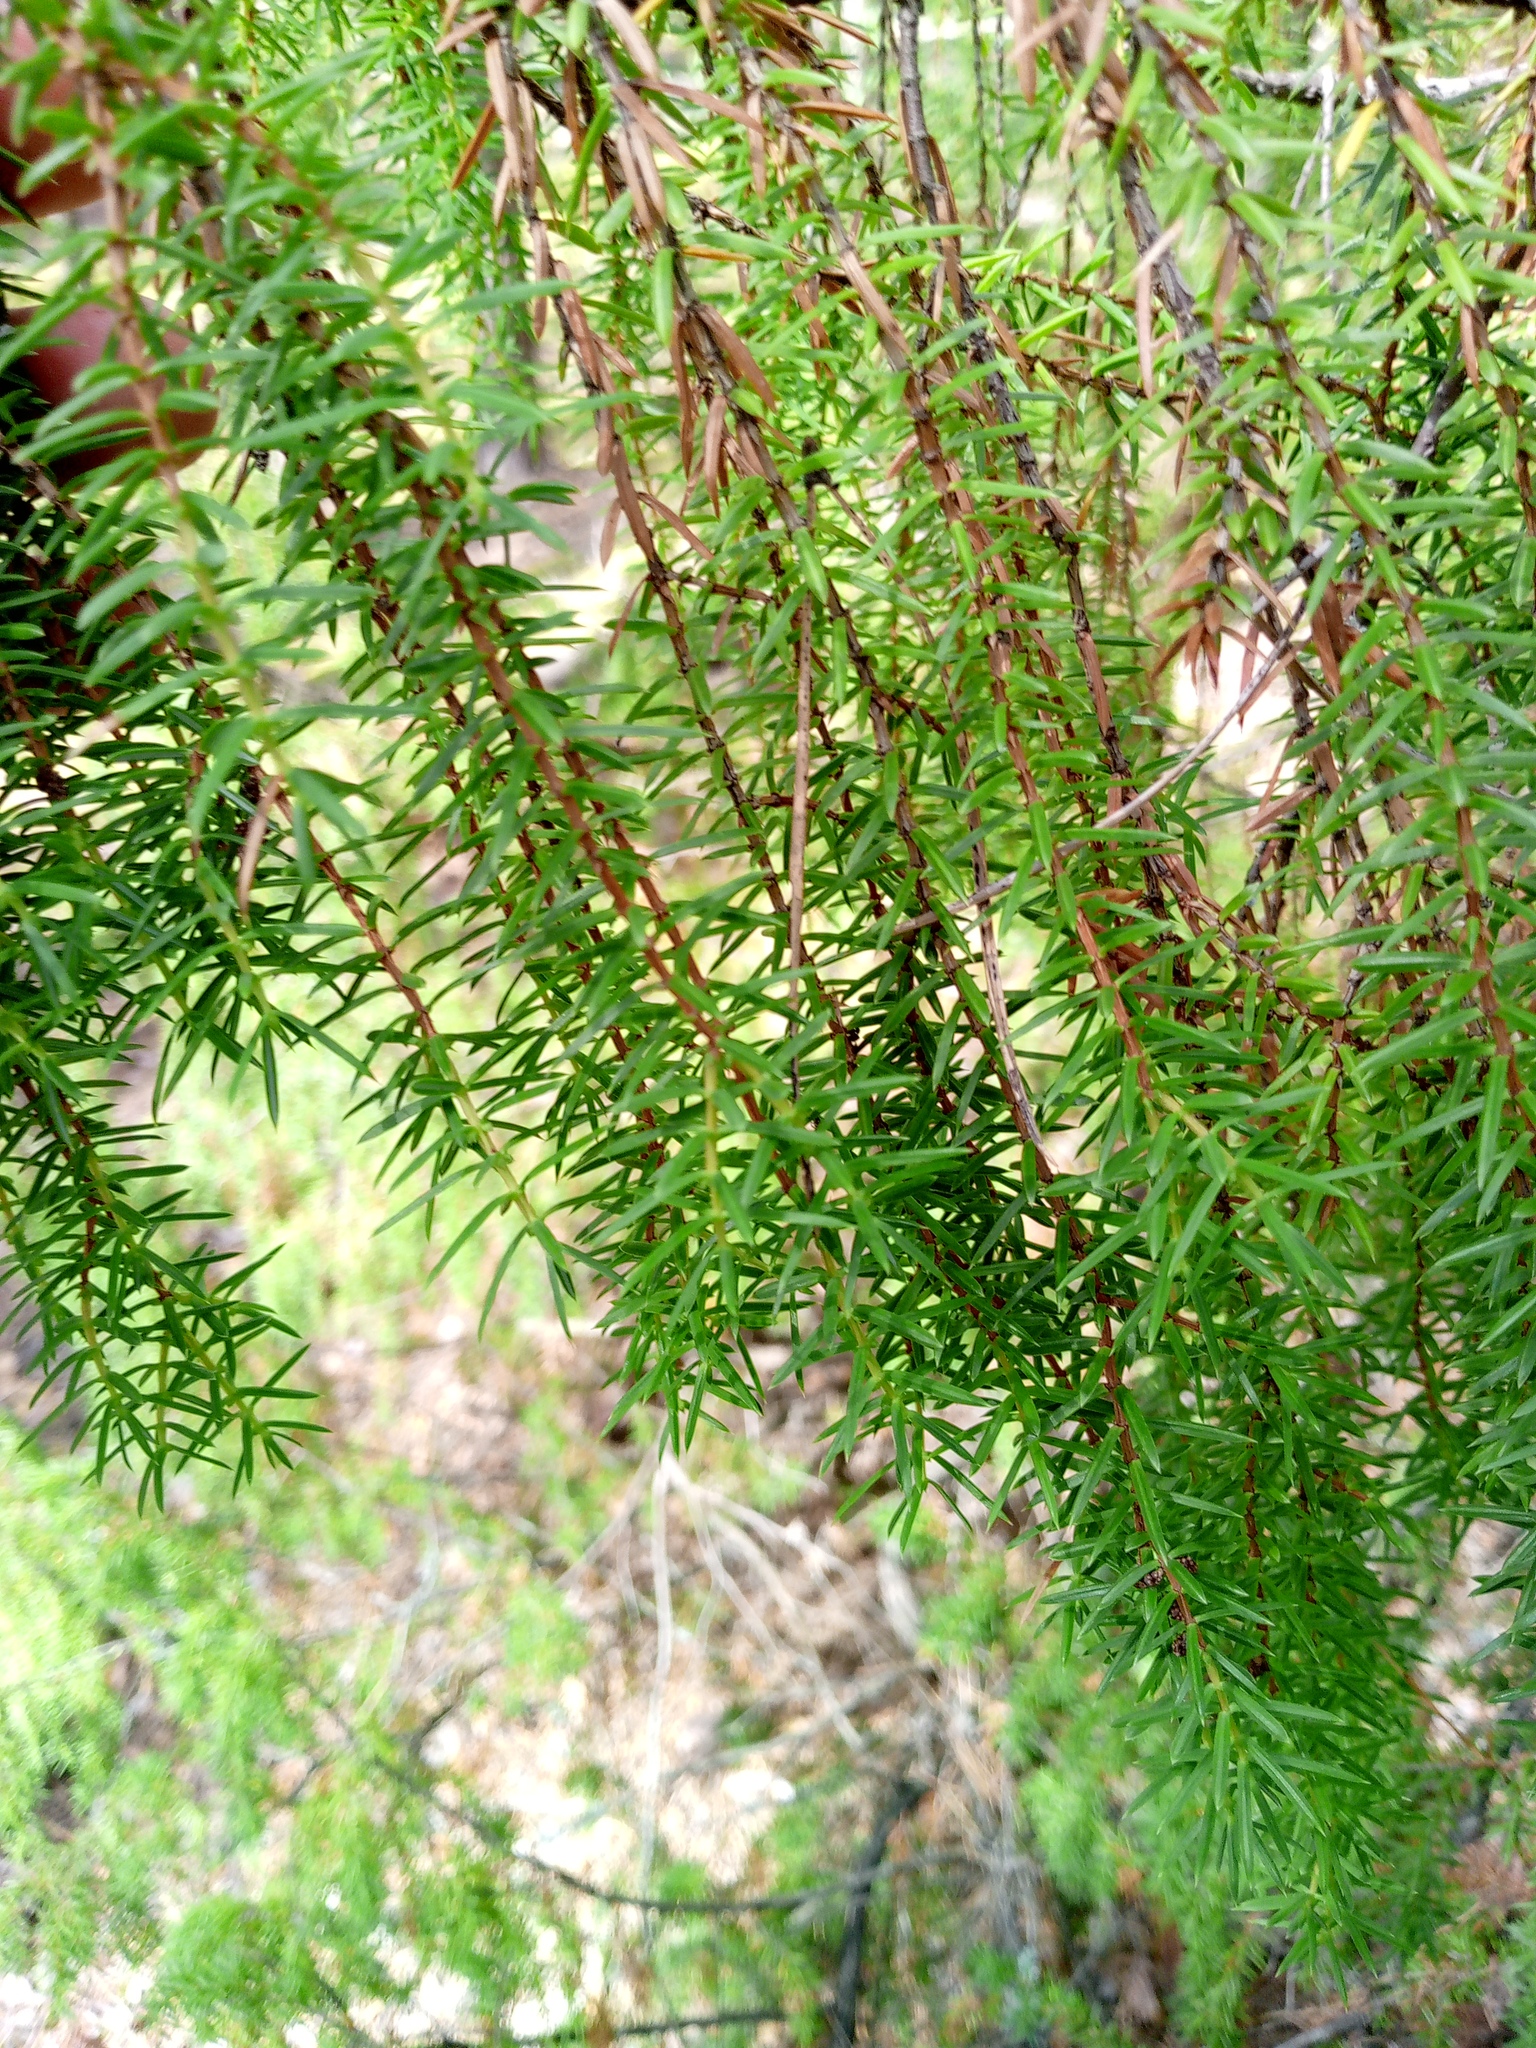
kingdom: Plantae
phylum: Tracheophyta
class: Pinopsida
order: Pinales
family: Cupressaceae
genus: Juniperus
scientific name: Juniperus communis
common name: Common juniper
